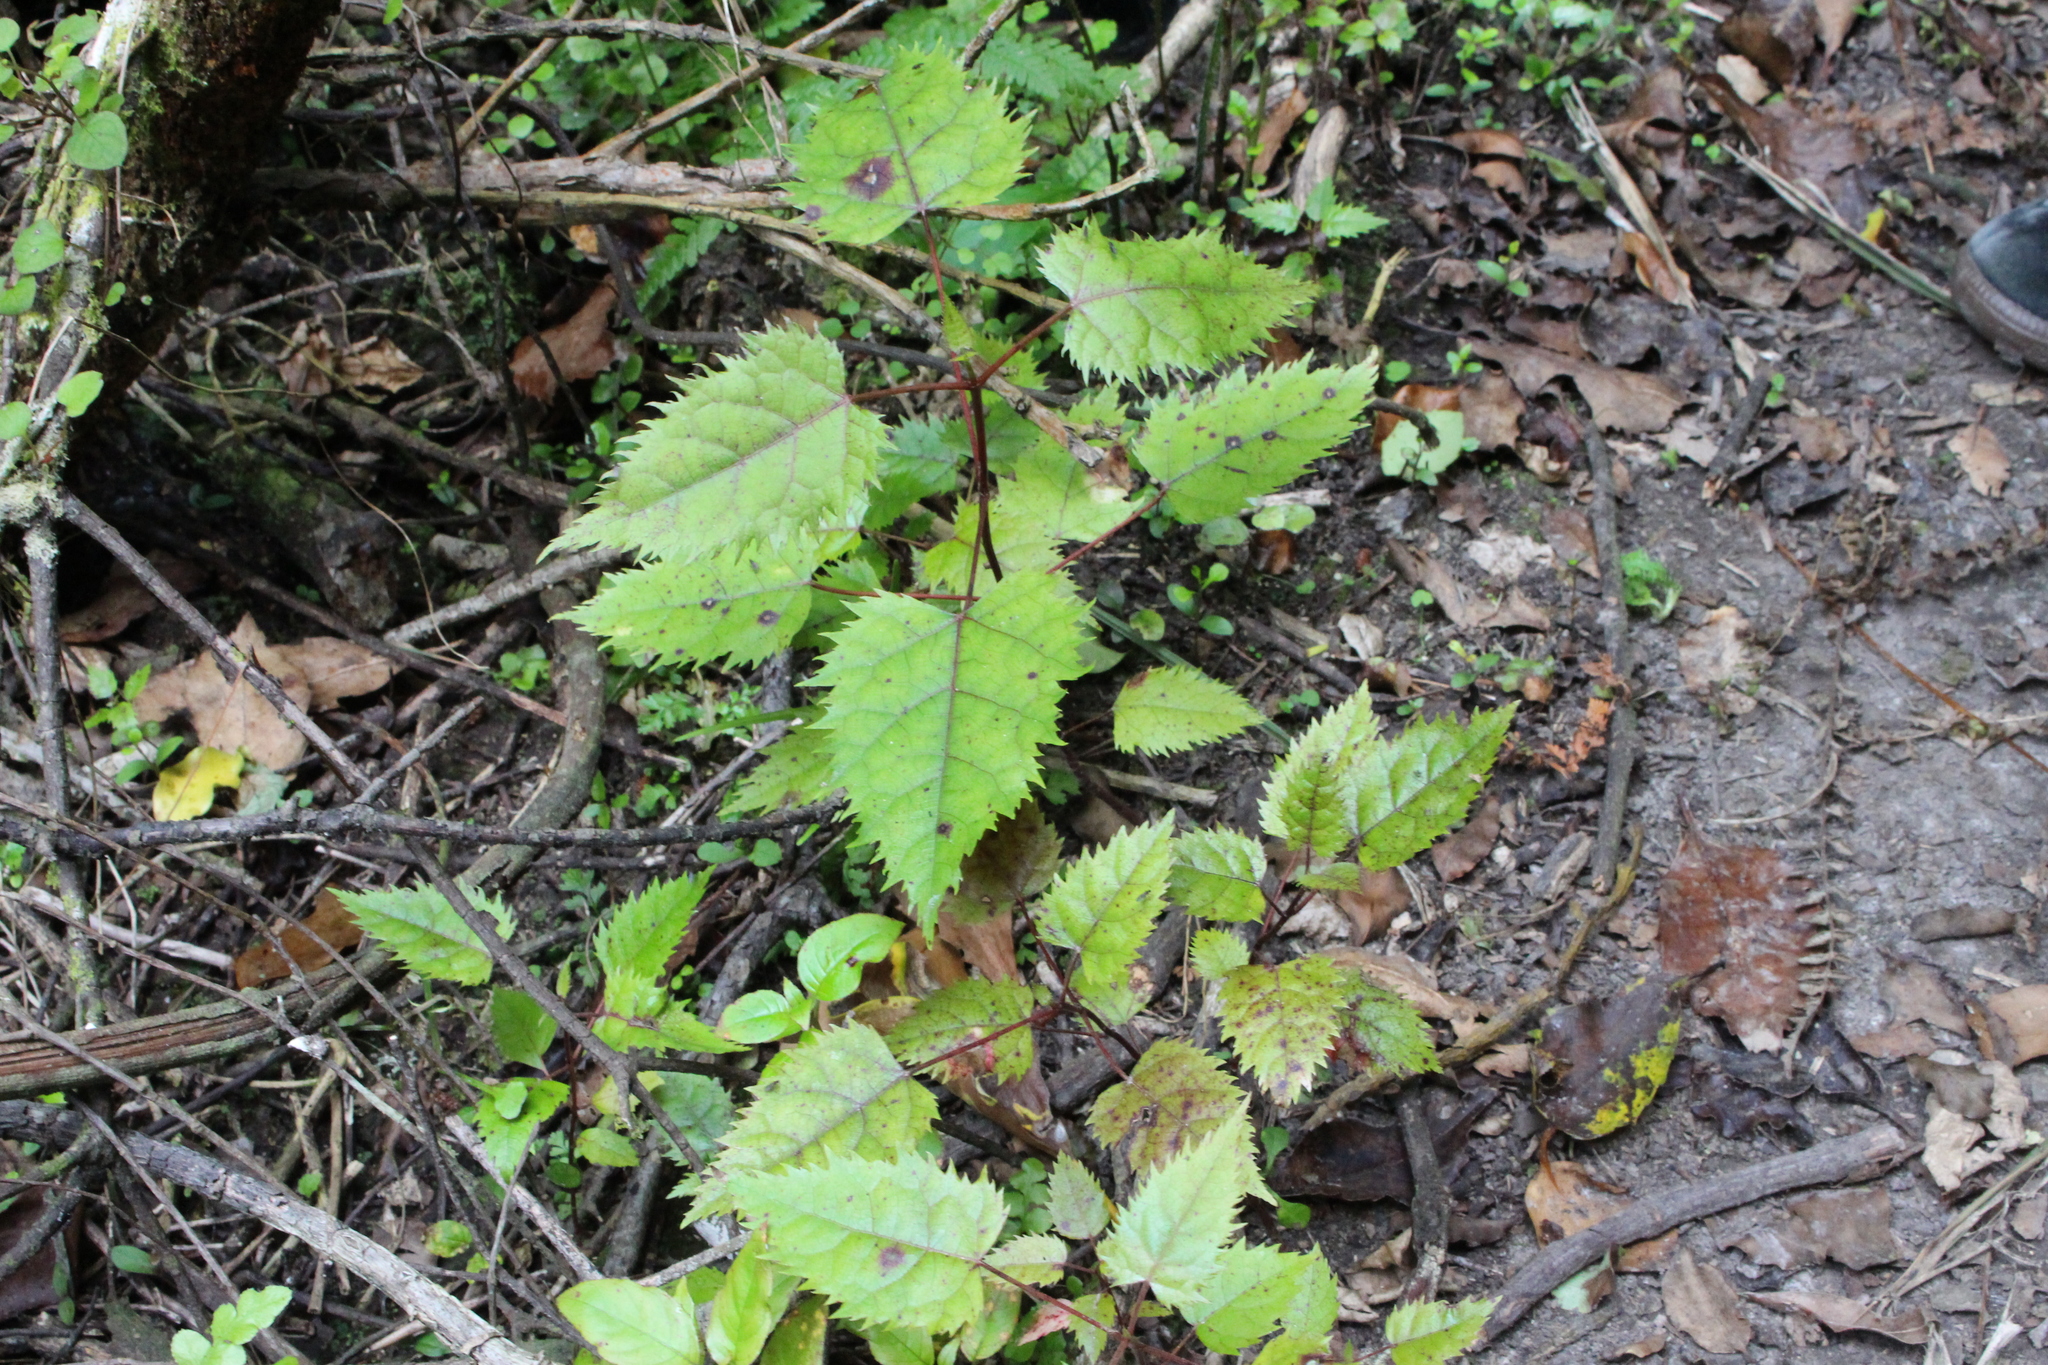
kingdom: Plantae
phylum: Tracheophyta
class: Magnoliopsida
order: Oxalidales
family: Elaeocarpaceae
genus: Aristotelia
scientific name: Aristotelia serrata
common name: New zealand wineberry
